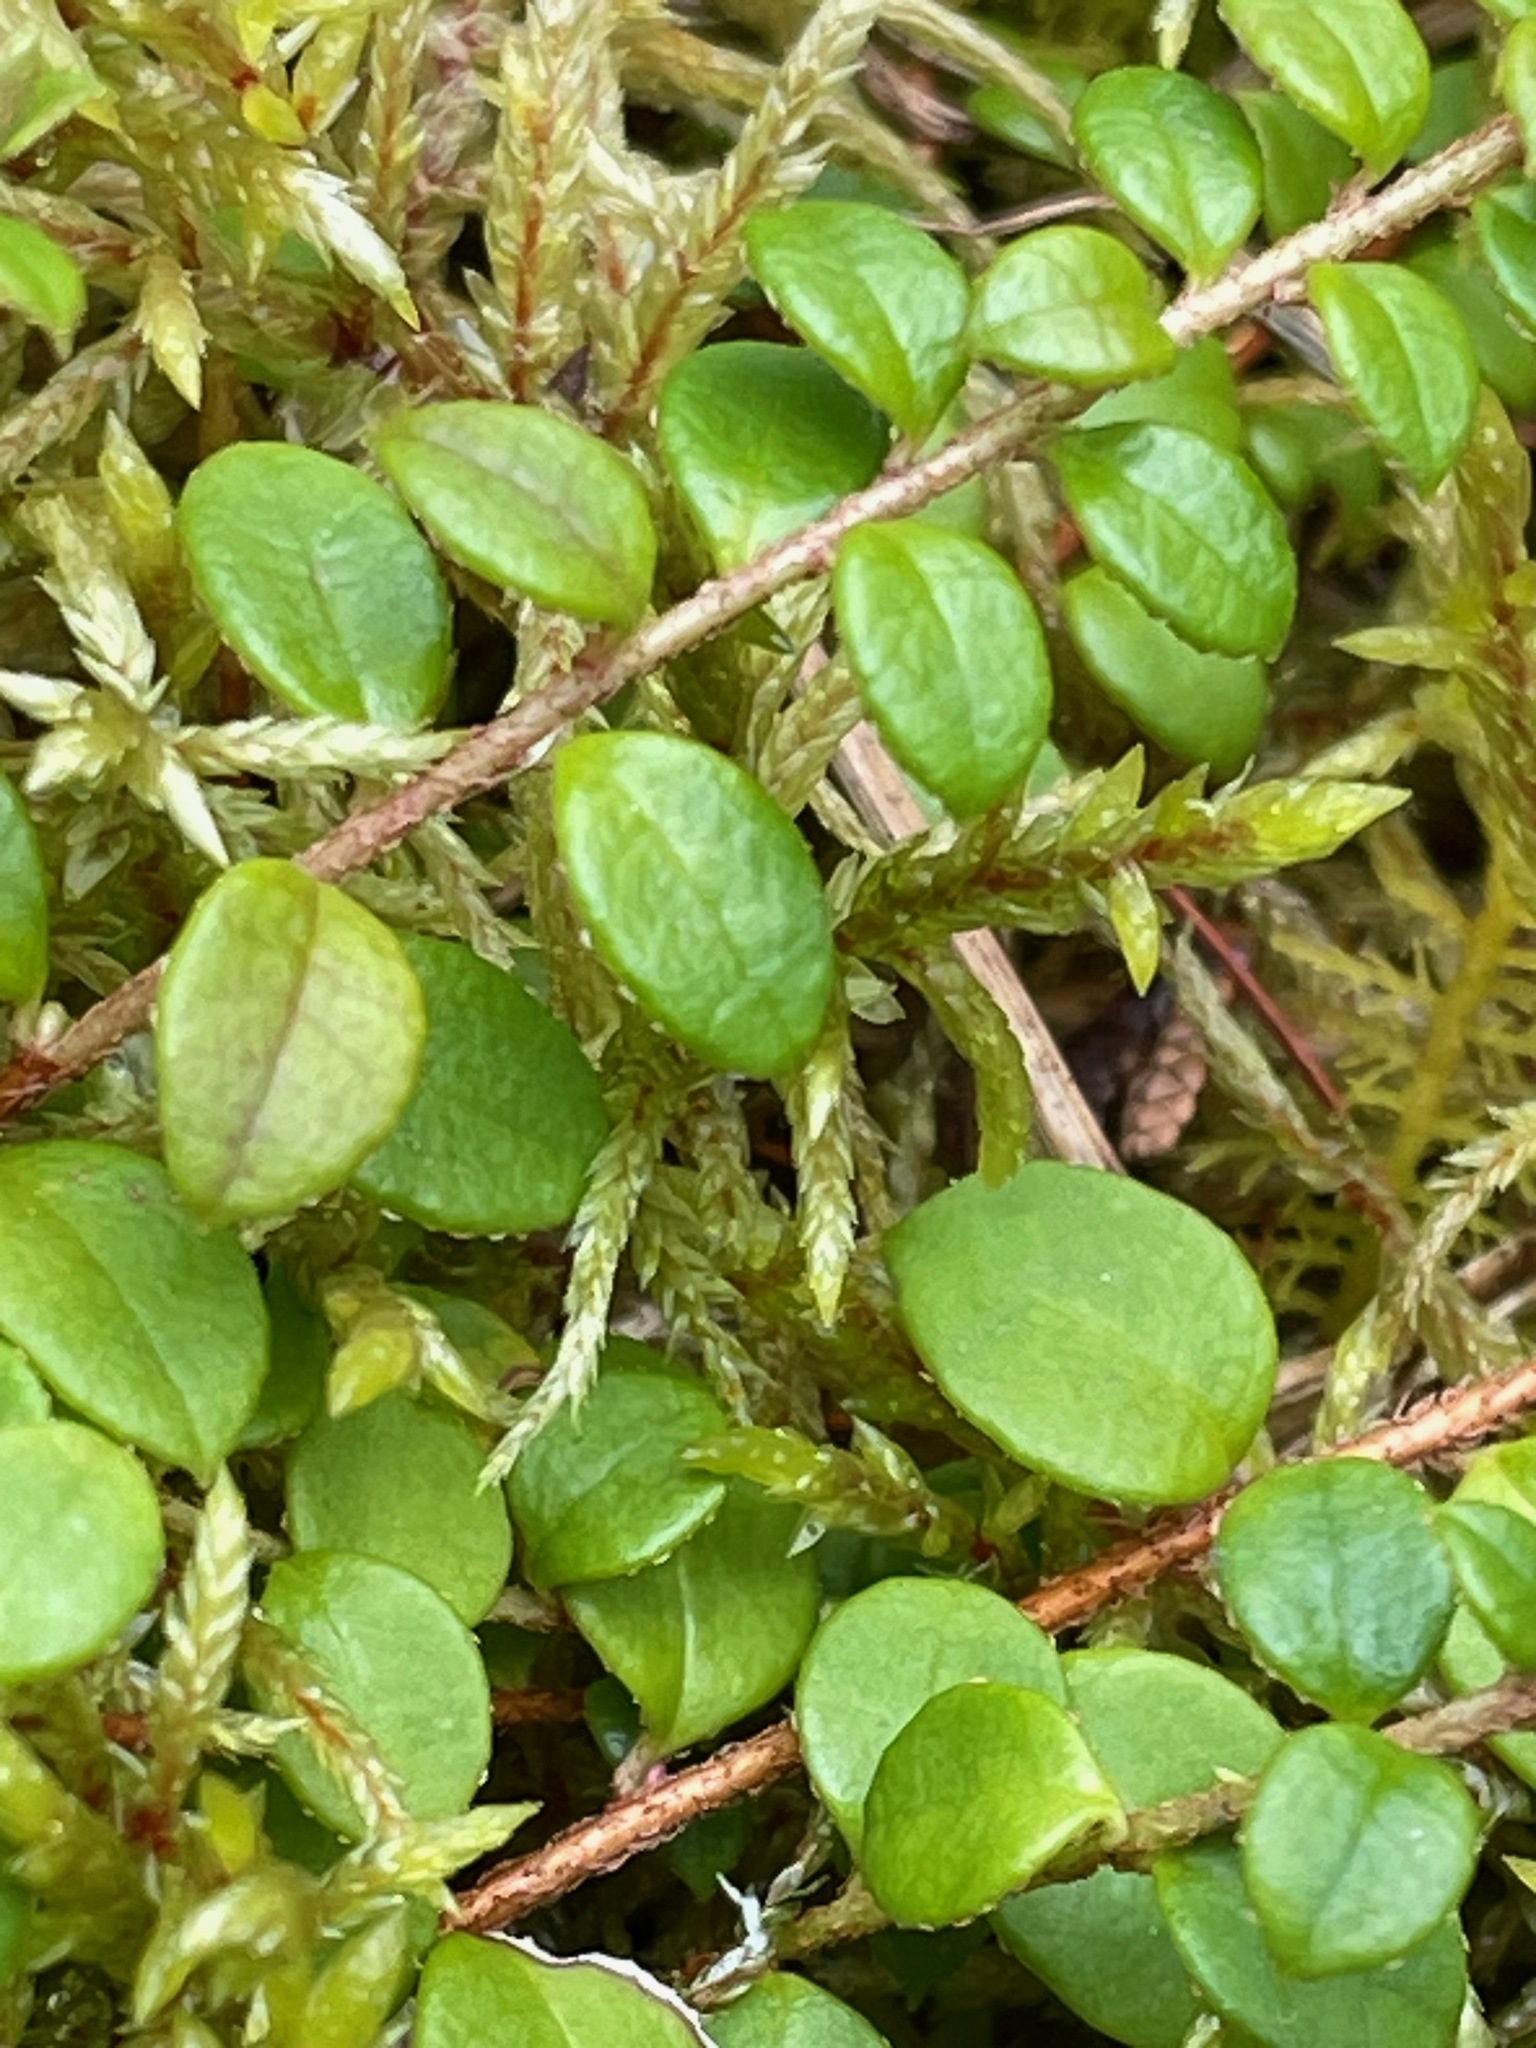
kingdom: Plantae
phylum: Tracheophyta
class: Magnoliopsida
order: Ericales
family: Ericaceae
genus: Gaultheria
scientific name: Gaultheria hispidula
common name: Cancer wintergreen
